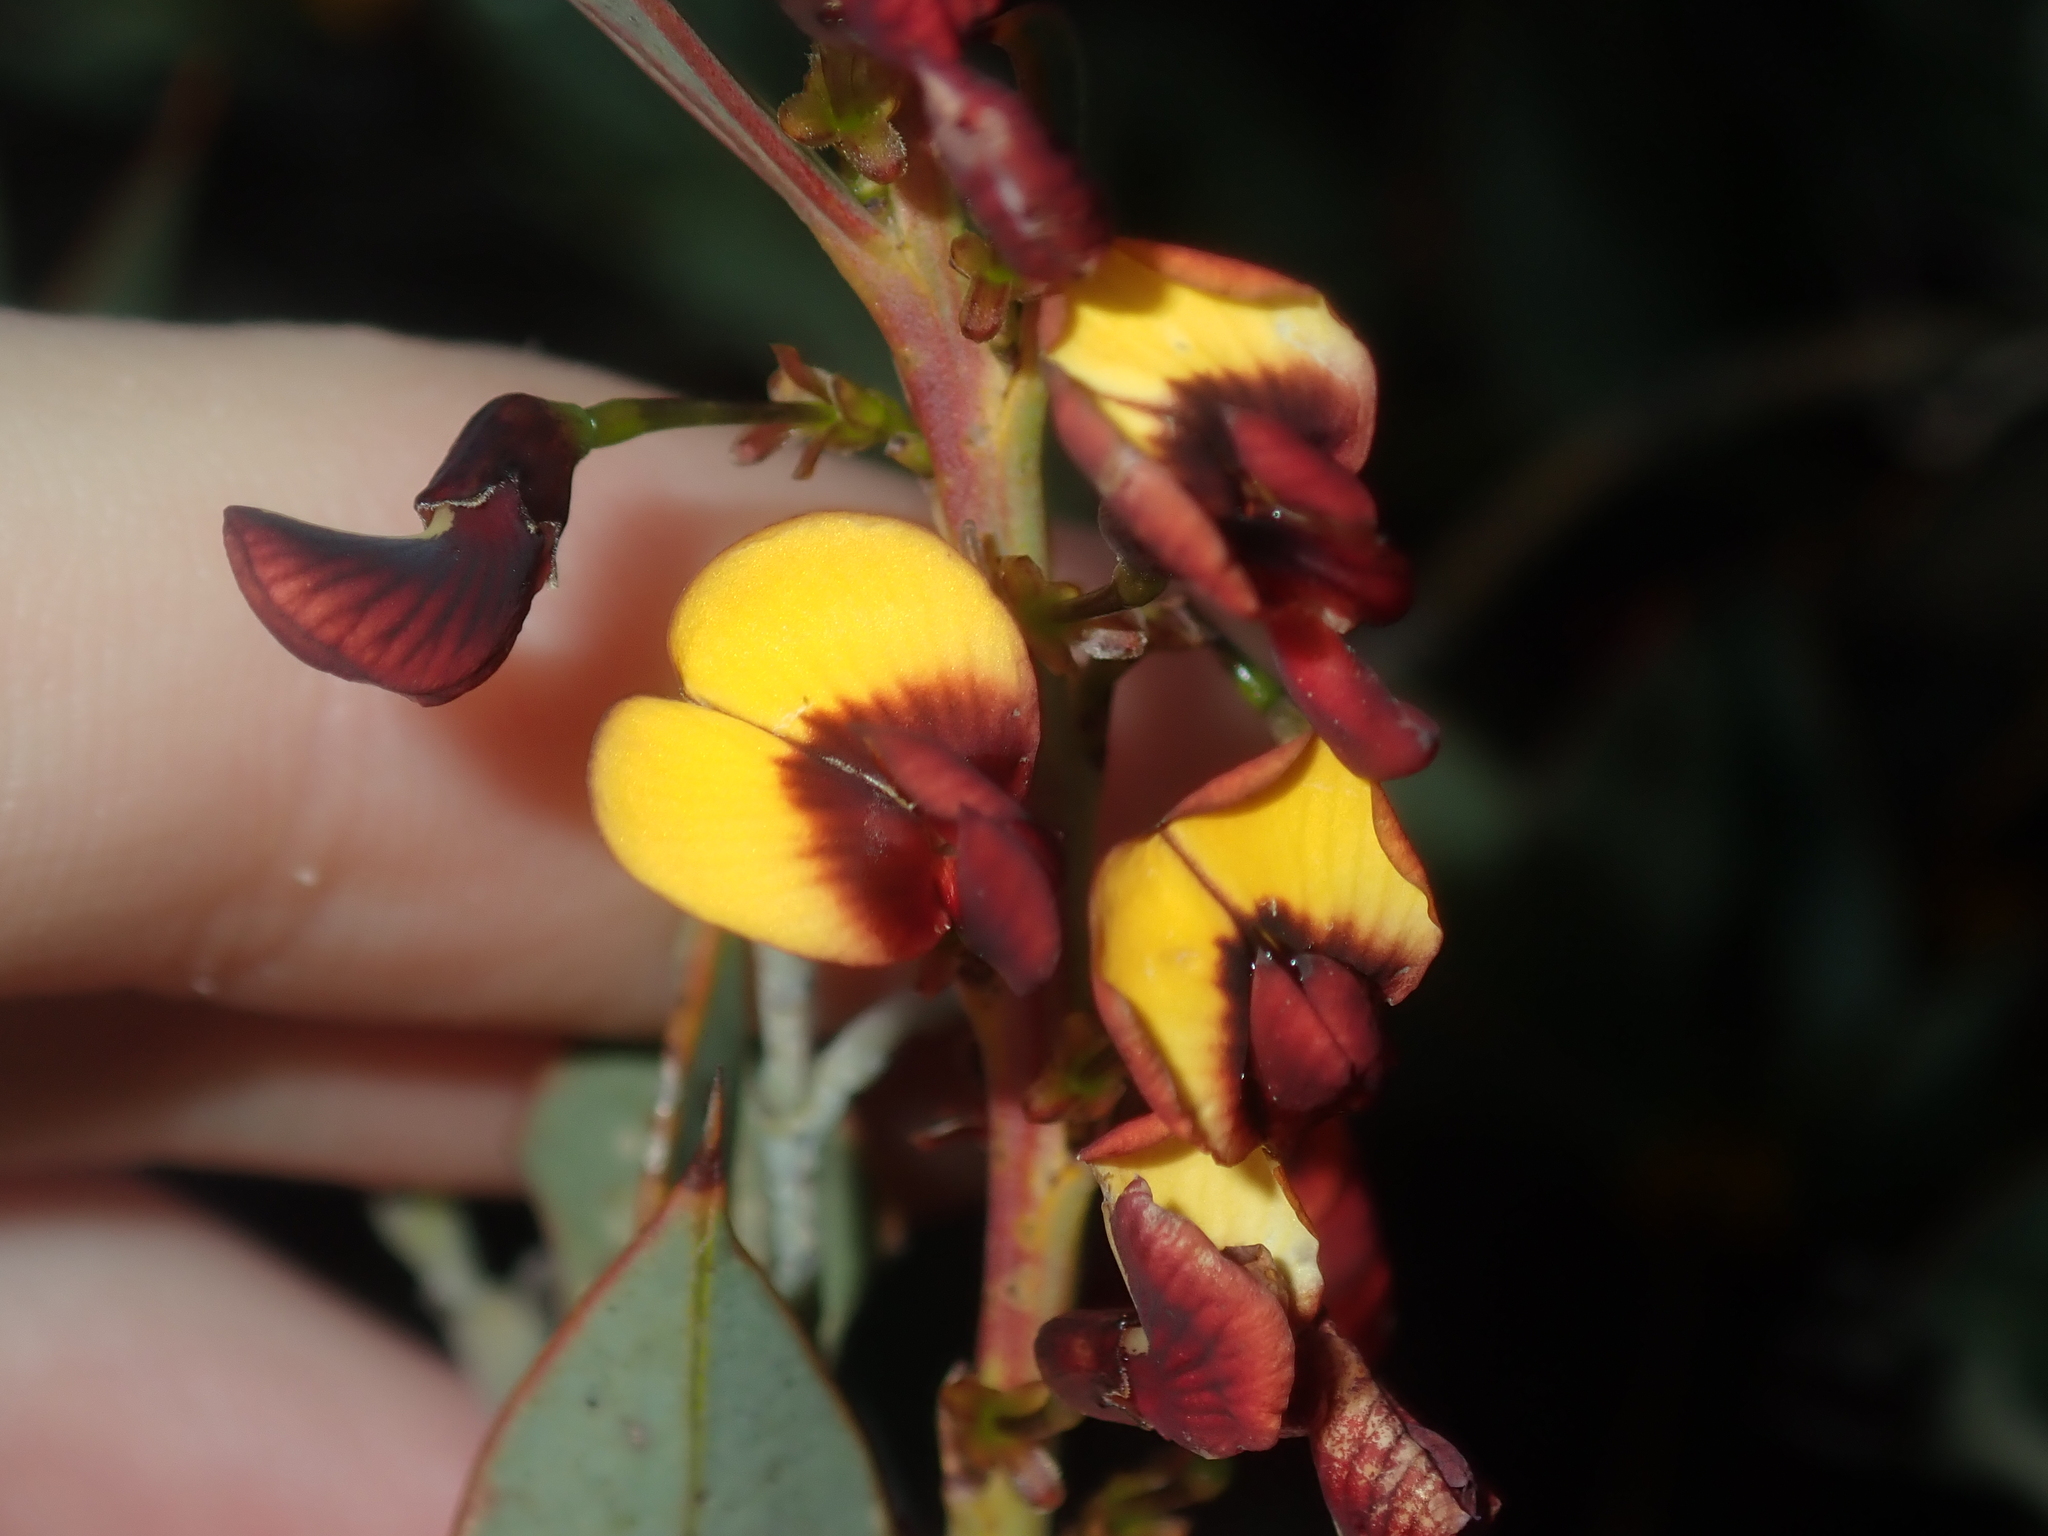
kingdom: Plantae
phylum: Tracheophyta
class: Magnoliopsida
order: Fabales
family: Fabaceae
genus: Daviesia
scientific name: Daviesia nudiflora
